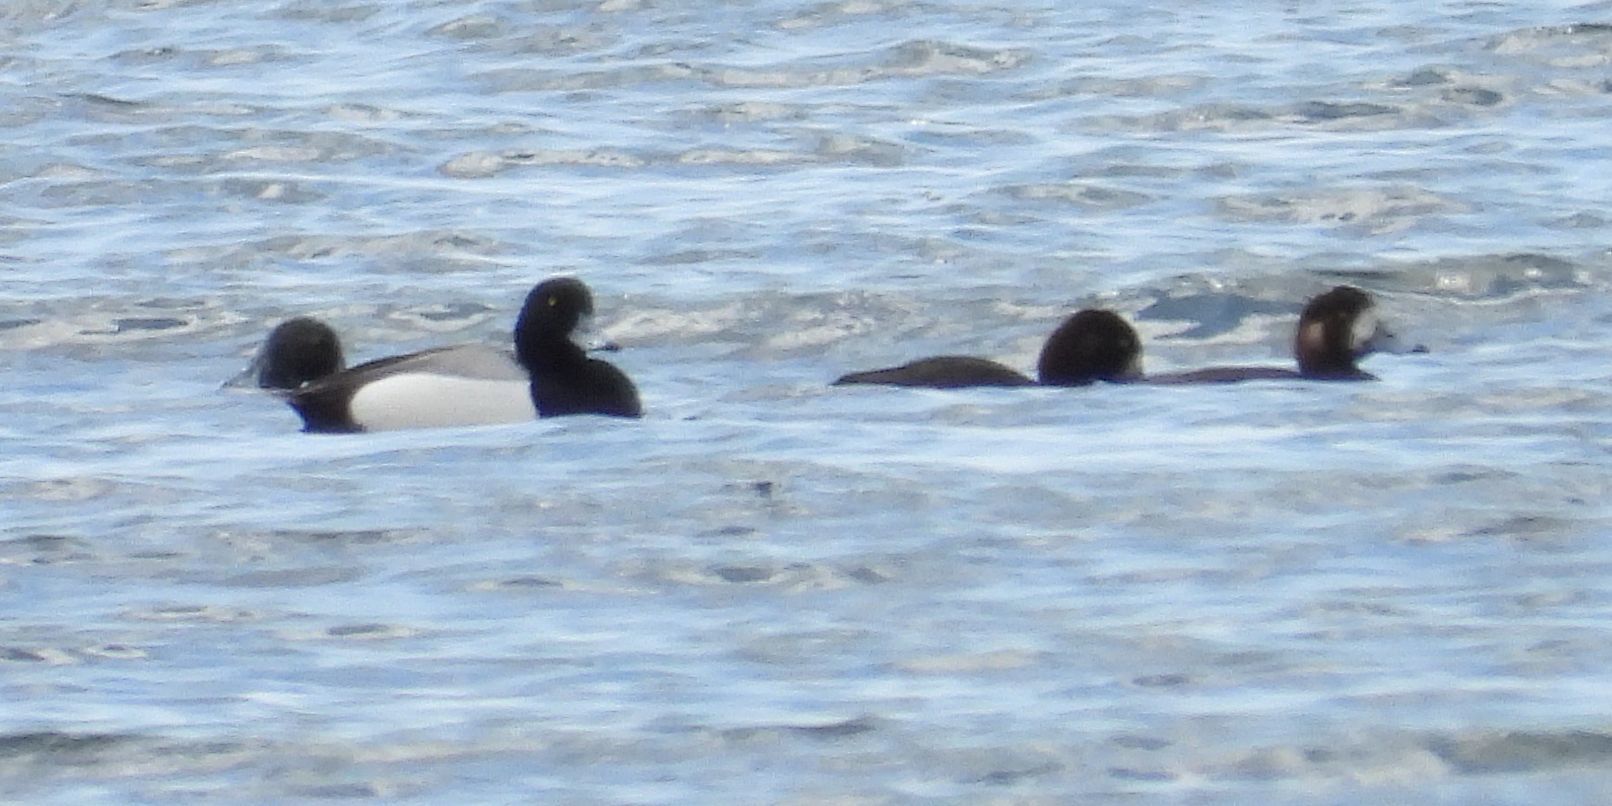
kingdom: Animalia
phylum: Chordata
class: Aves
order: Anseriformes
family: Anatidae
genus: Aythya
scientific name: Aythya marila
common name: Greater scaup
